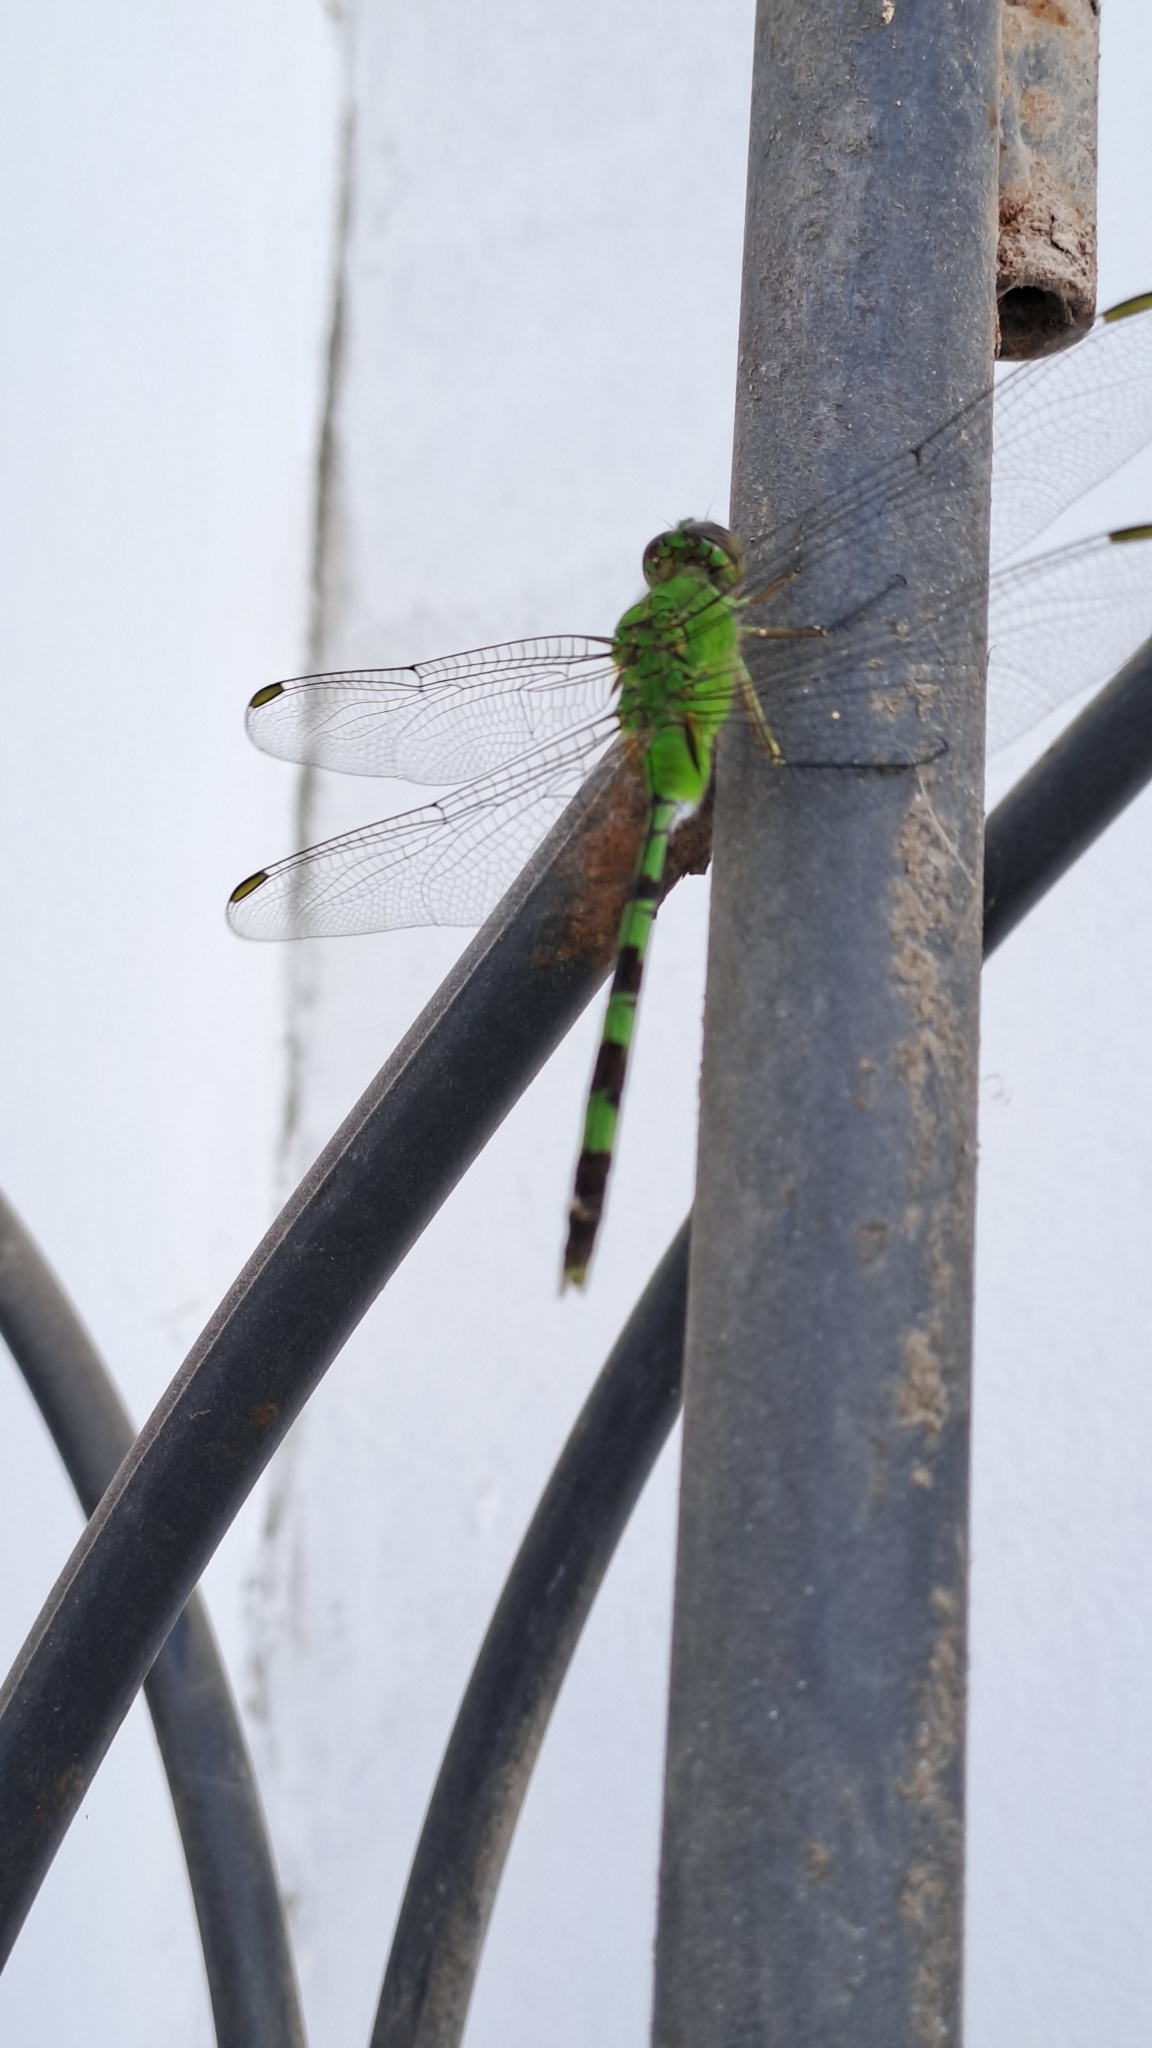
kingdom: Animalia
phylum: Arthropoda
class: Insecta
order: Odonata
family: Libellulidae
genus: Erythemis
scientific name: Erythemis vesiculosa
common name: Great pondhawk
